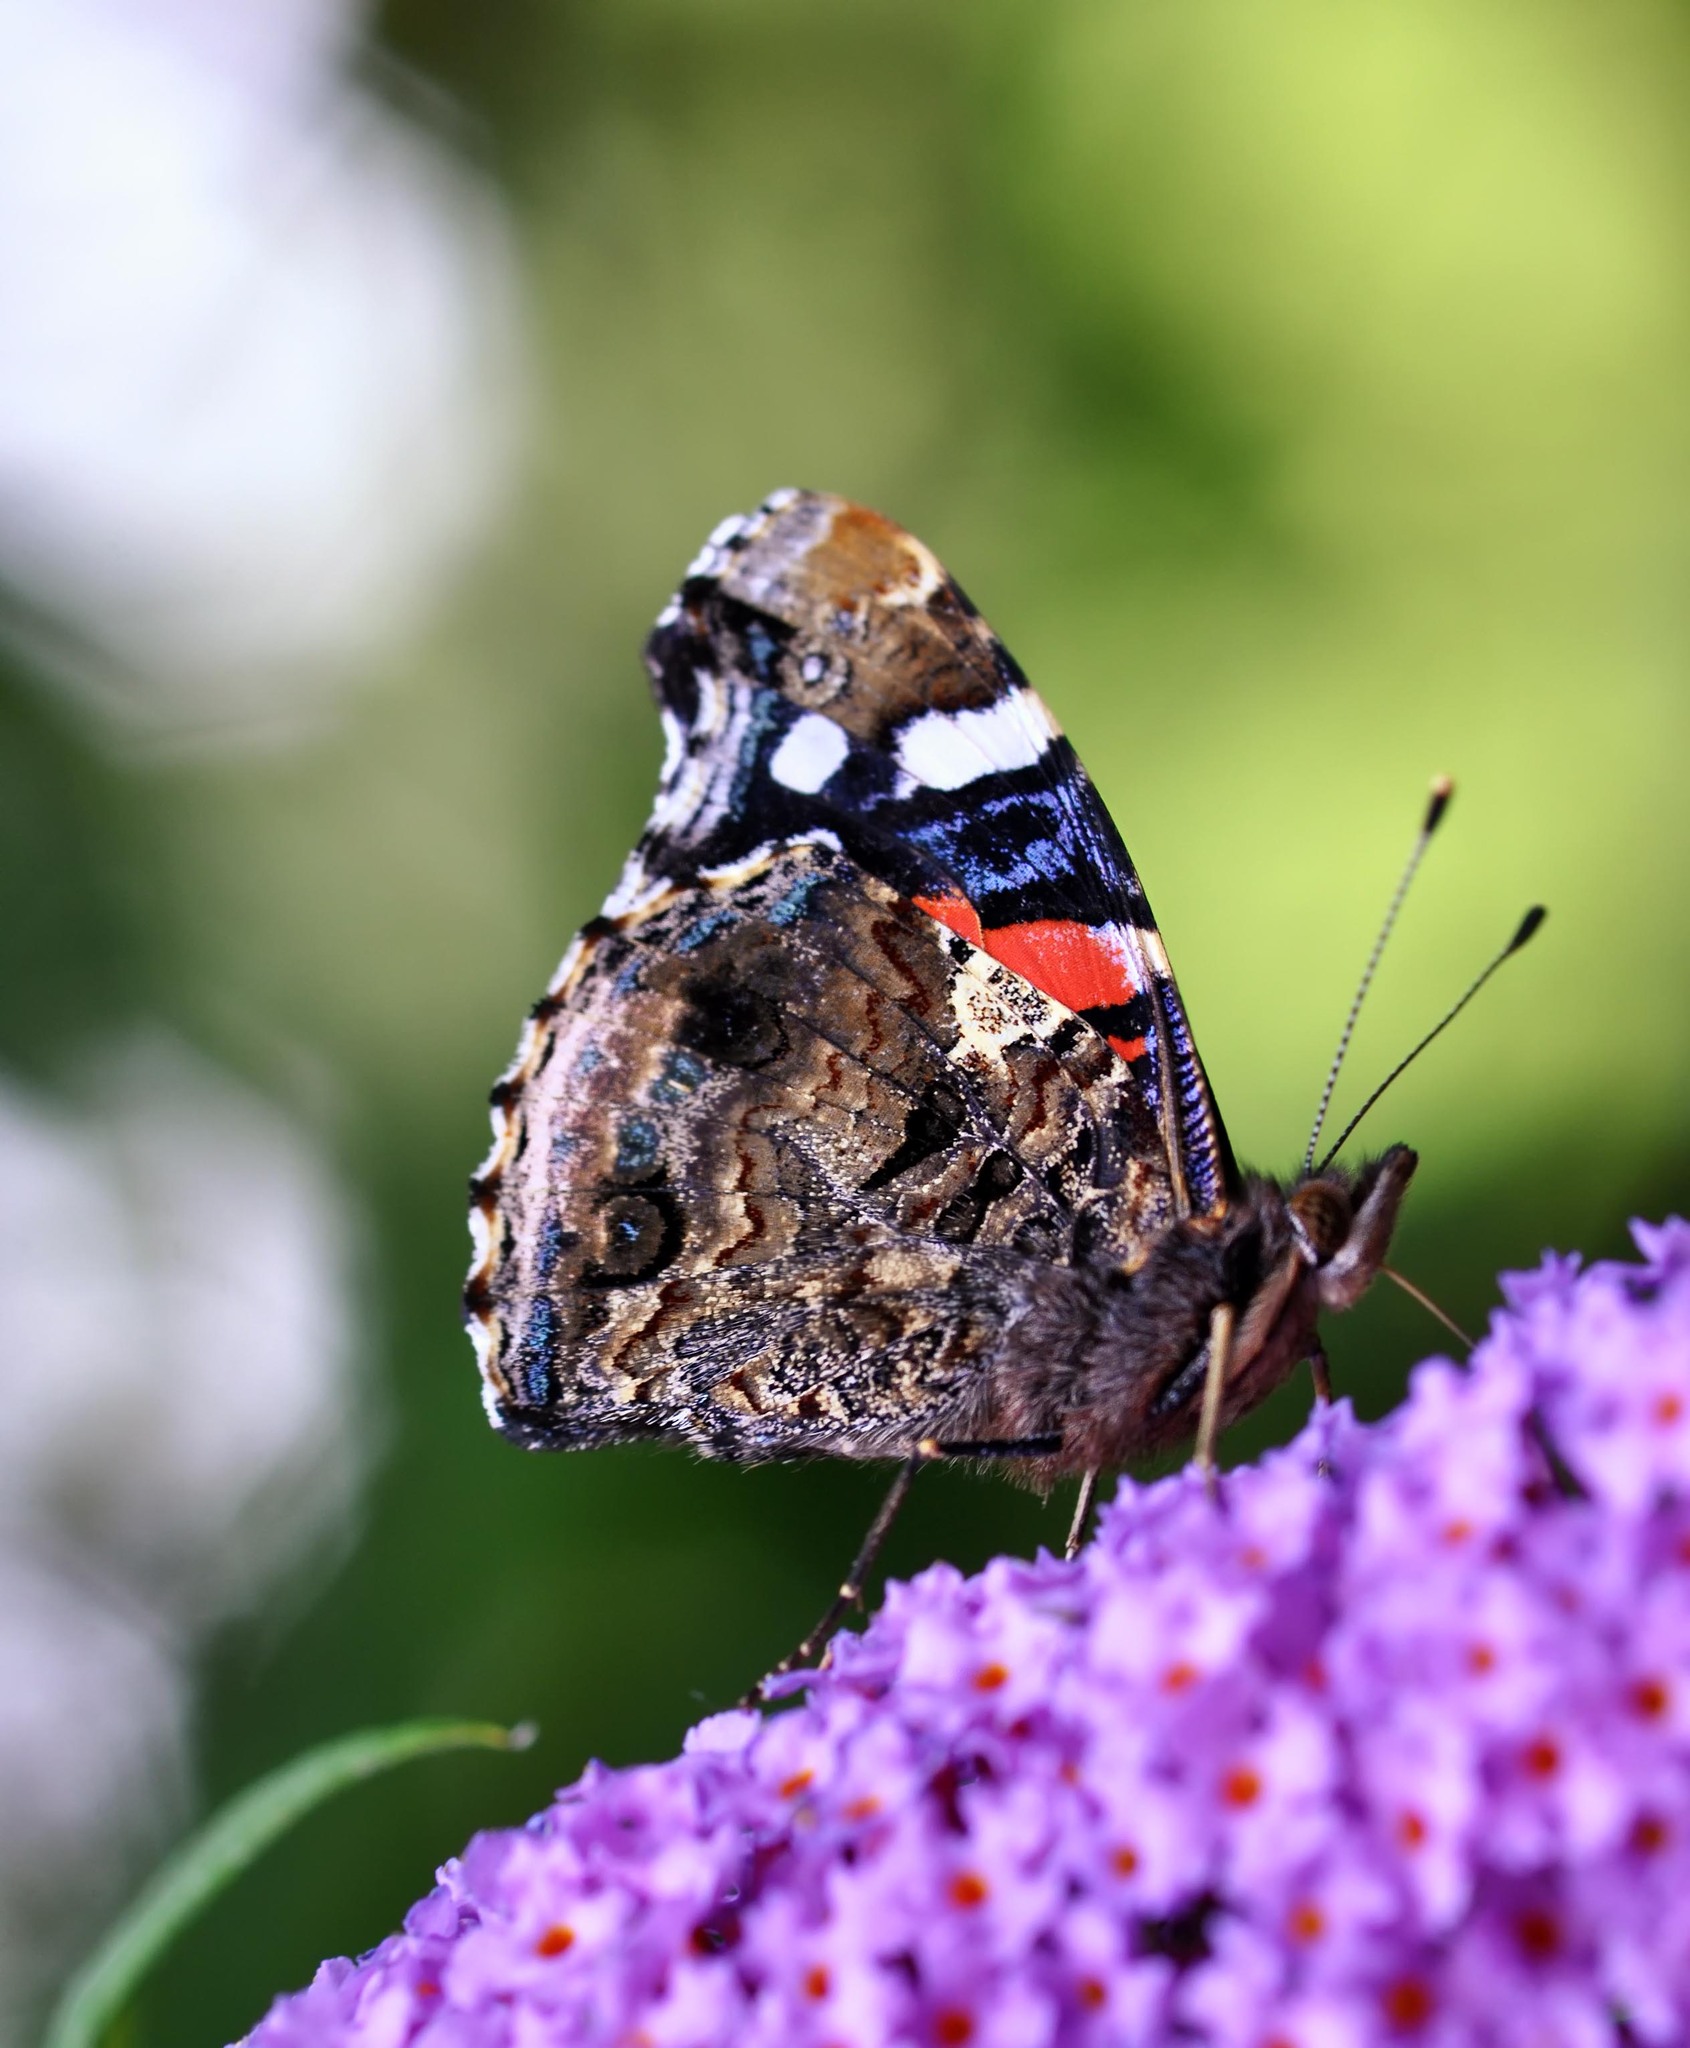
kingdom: Animalia
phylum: Arthropoda
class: Insecta
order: Lepidoptera
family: Nymphalidae
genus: Vanessa
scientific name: Vanessa atalanta
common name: Red admiral
